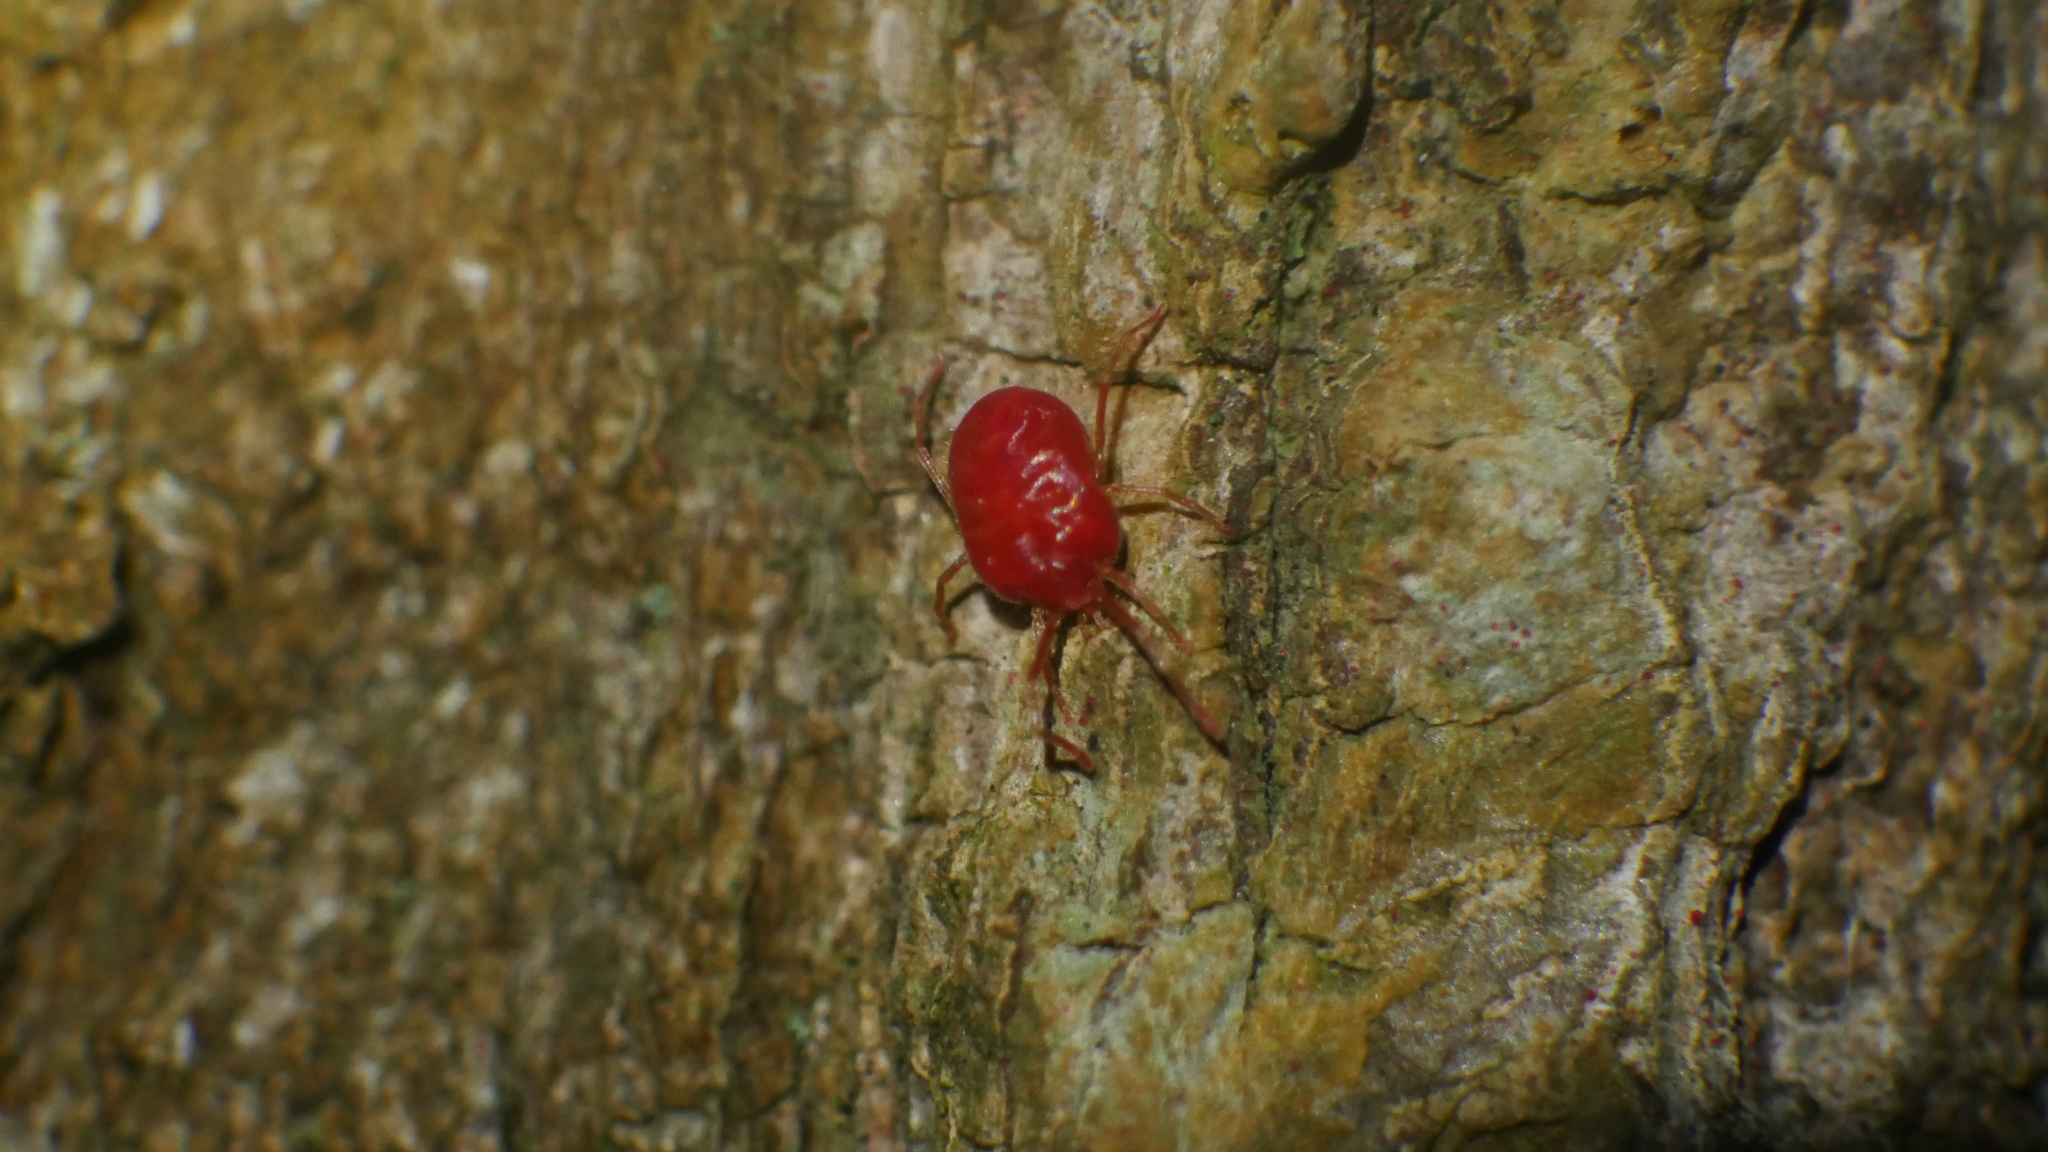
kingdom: Animalia
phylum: Arthropoda
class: Arachnida
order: Trombidiformes
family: Erythraeidae
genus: Callidosoma
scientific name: Callidosoma
